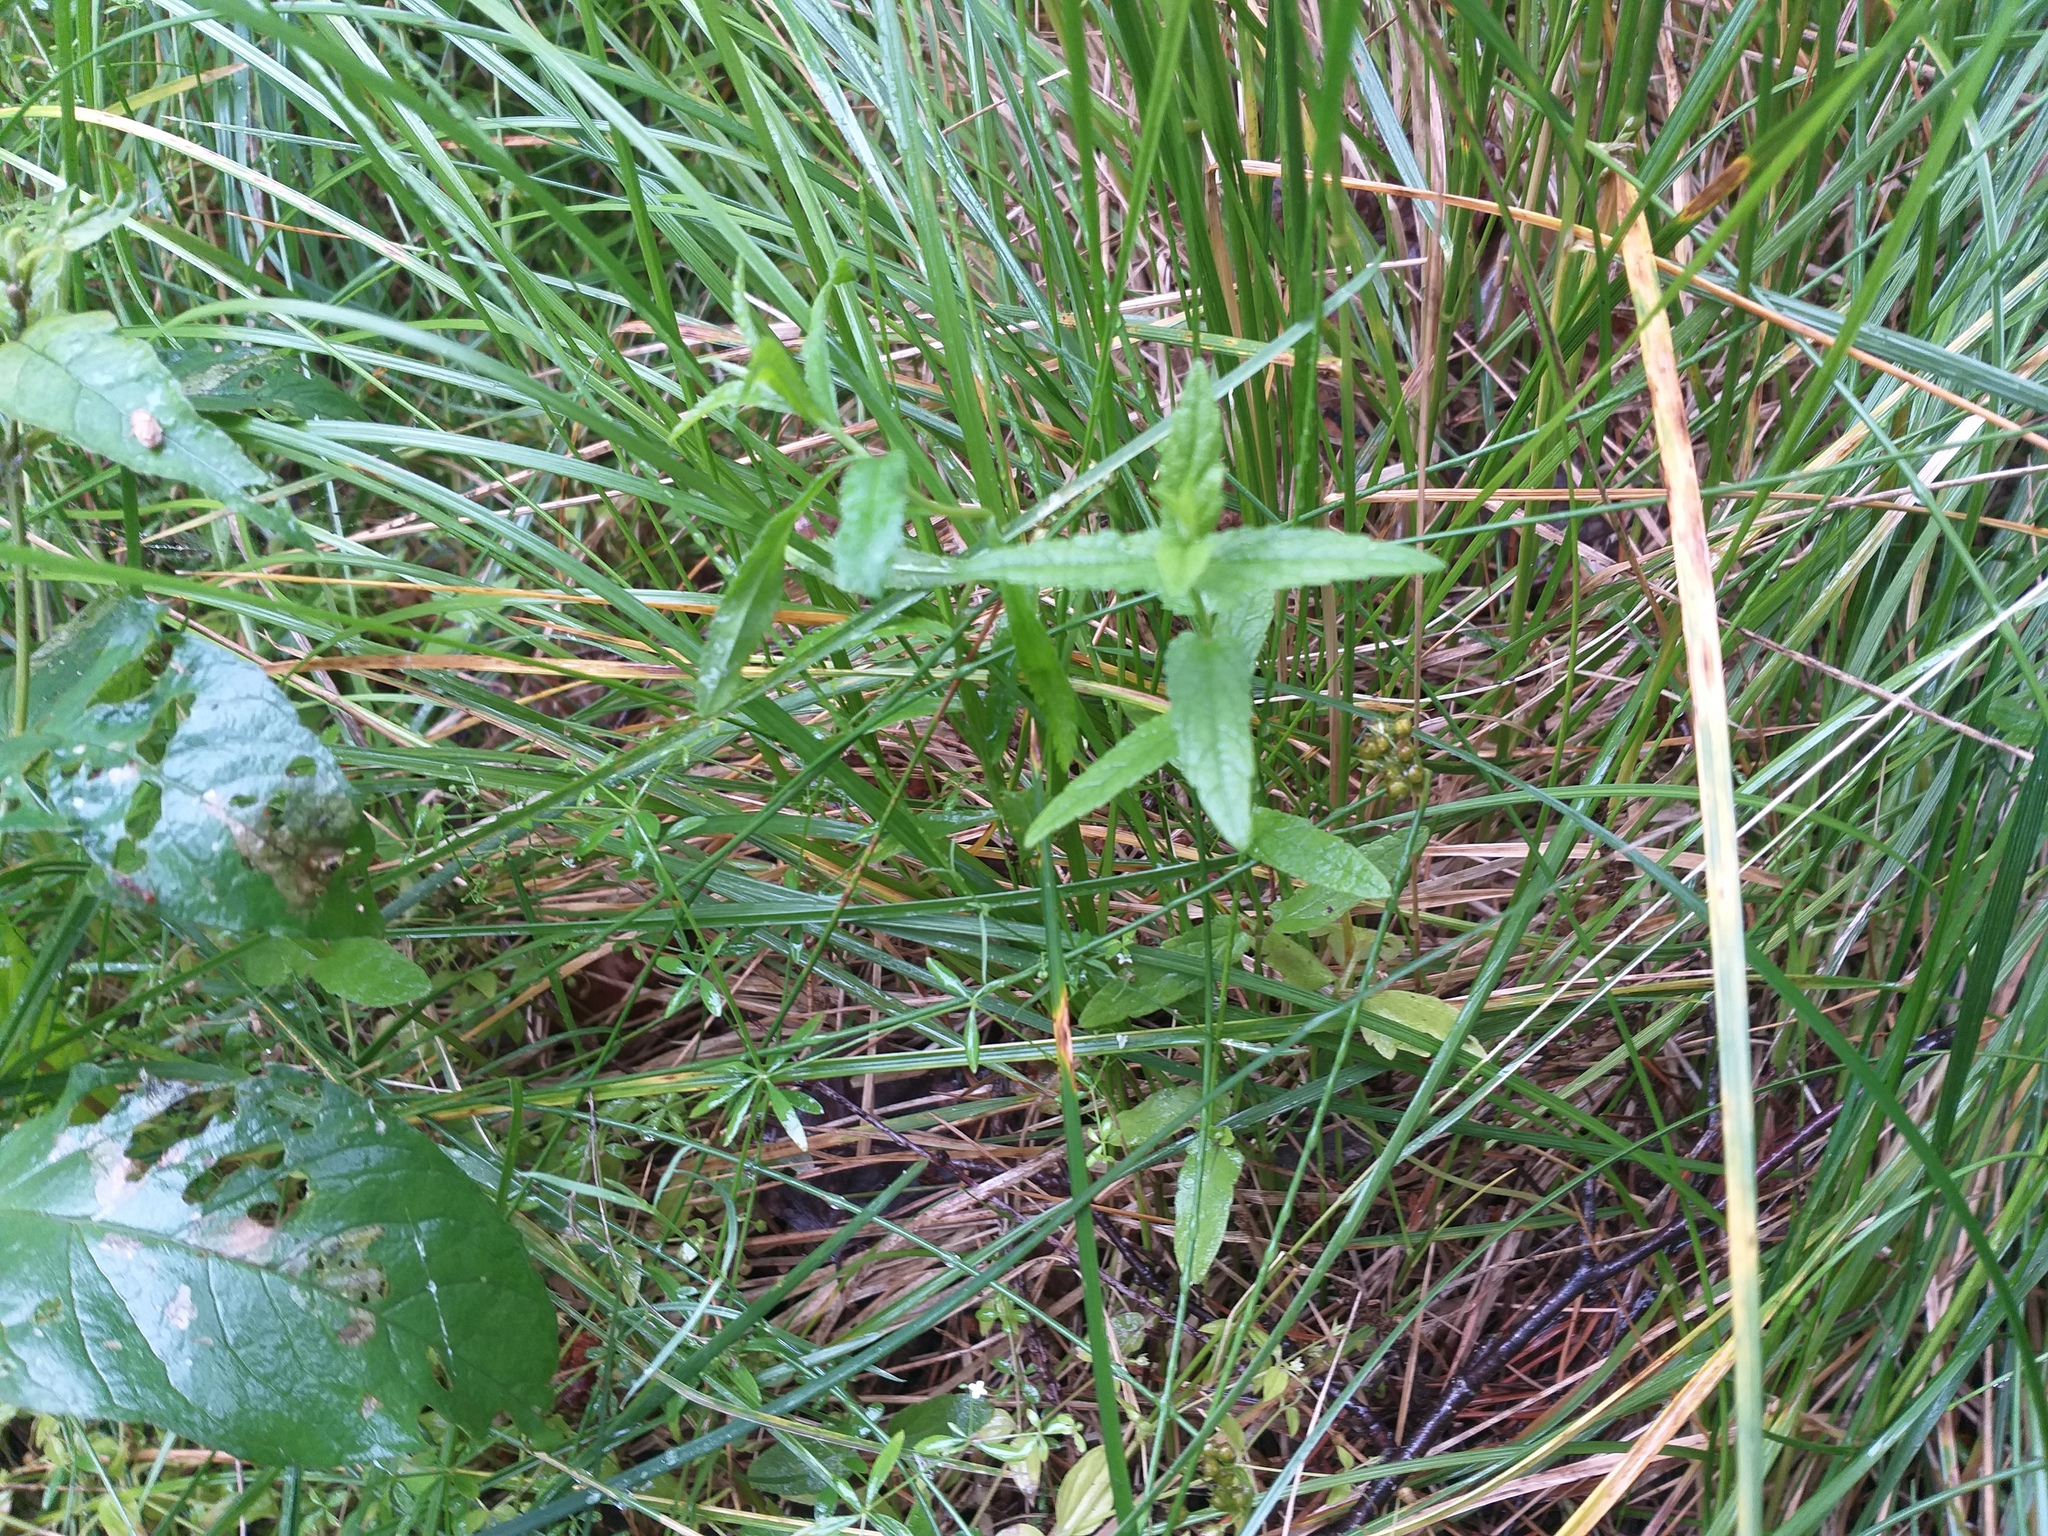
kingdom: Plantae
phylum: Tracheophyta
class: Magnoliopsida
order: Lamiales
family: Lamiaceae
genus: Scutellaria
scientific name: Scutellaria galericulata
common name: Skullcap
